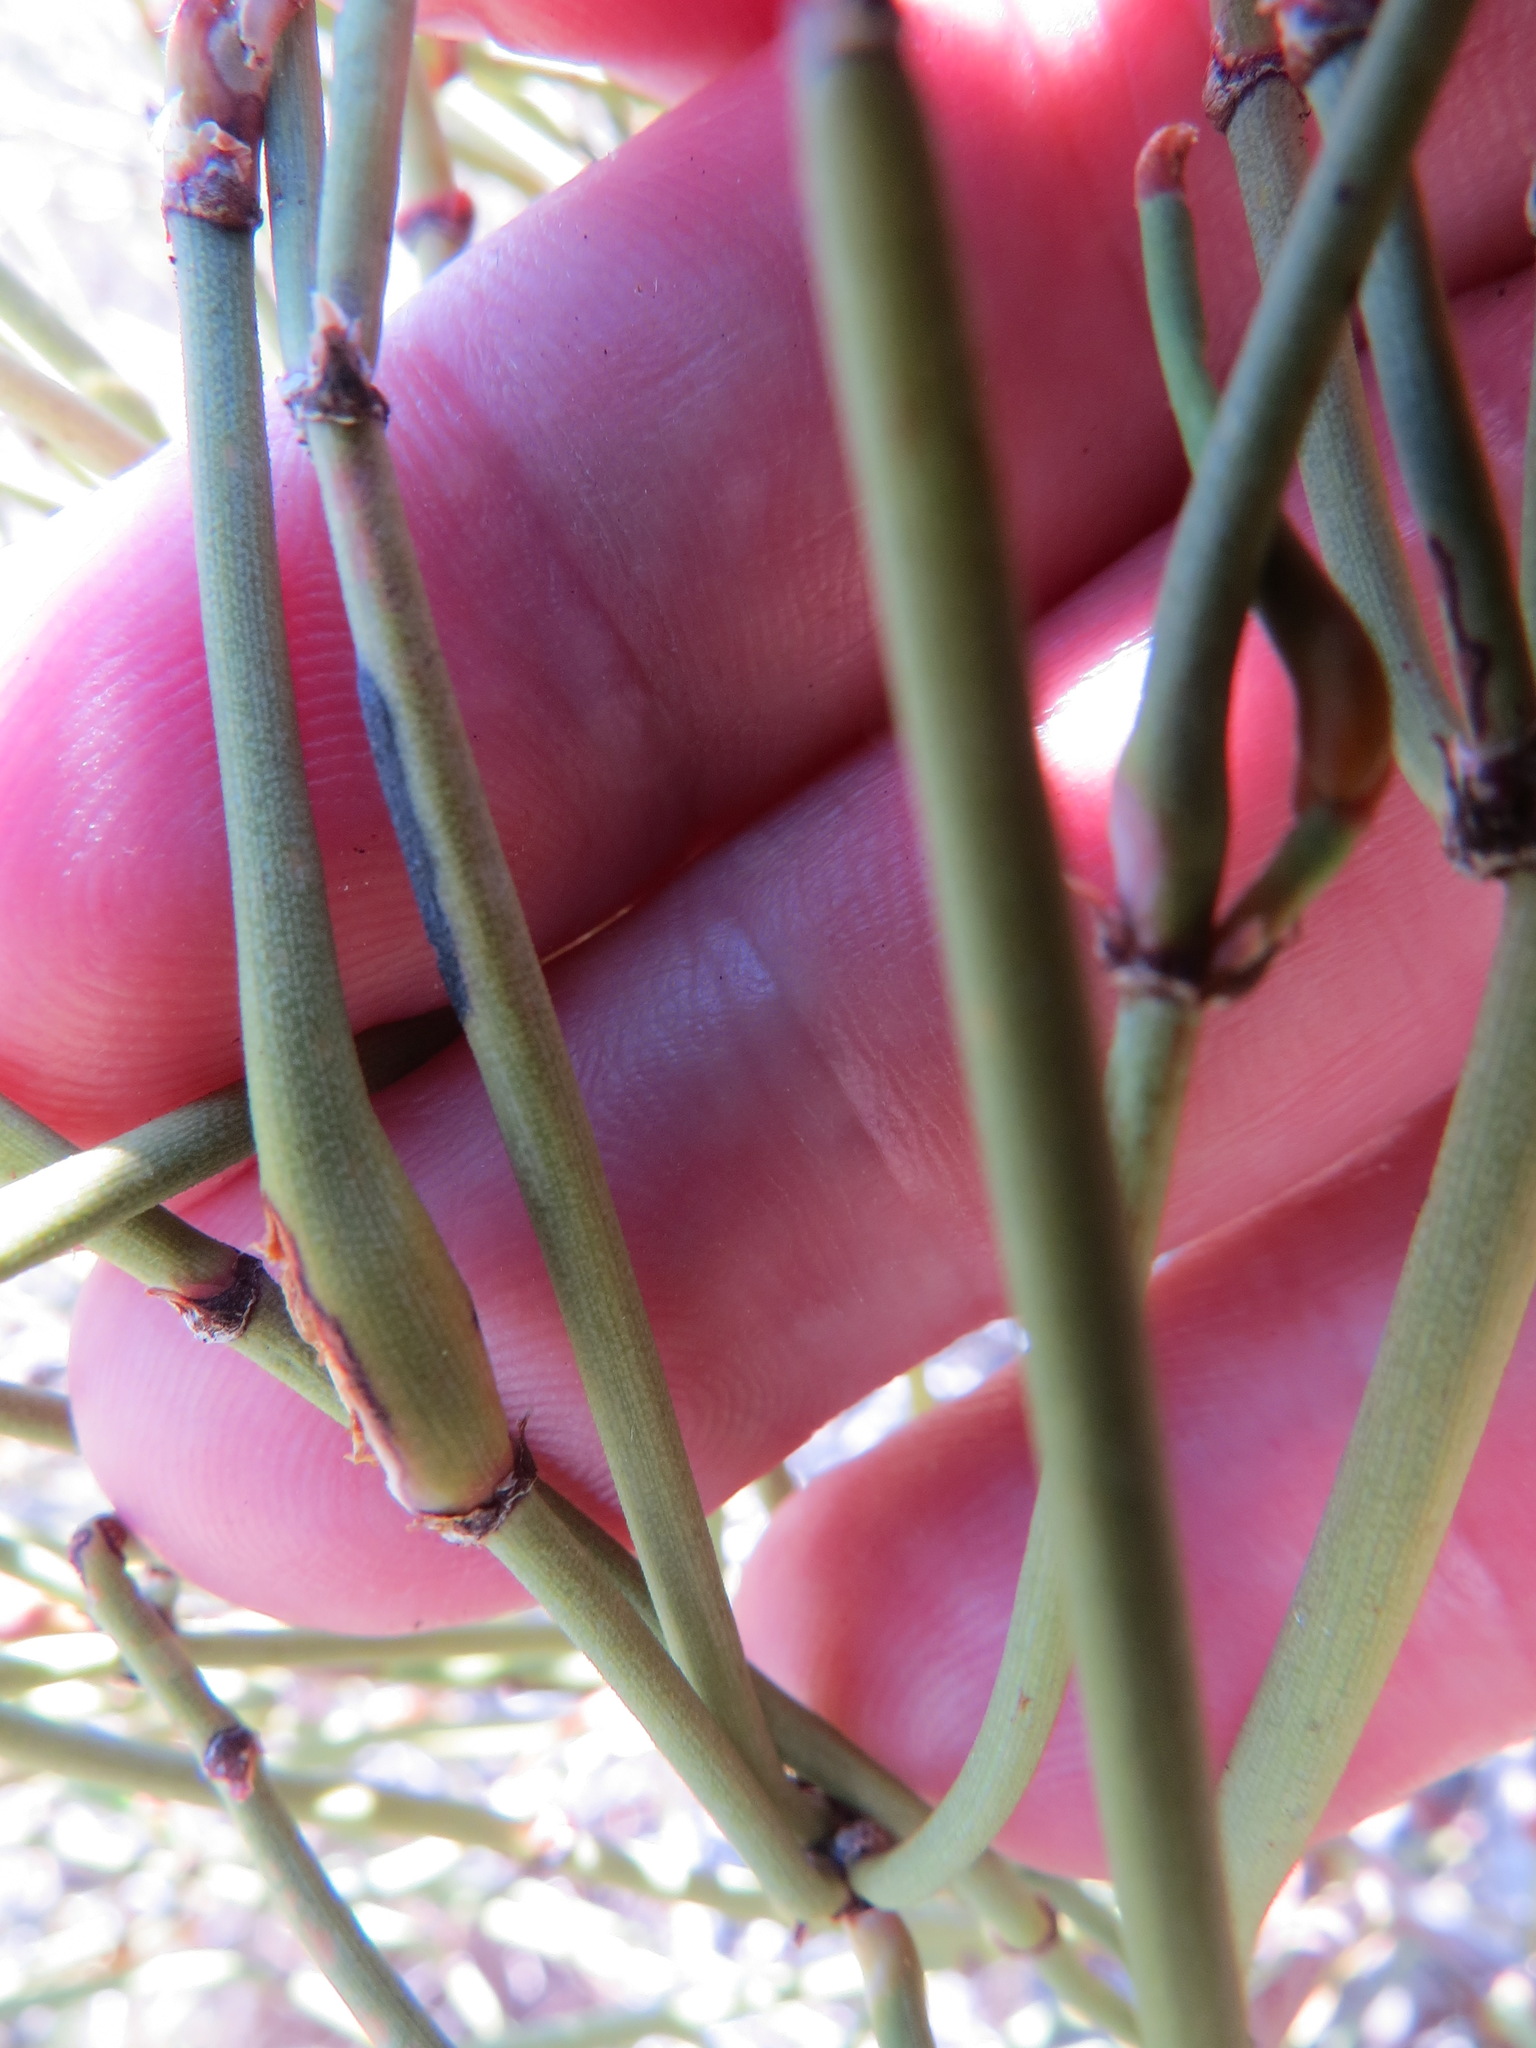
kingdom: Animalia
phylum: Arthropoda
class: Insecta
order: Diptera
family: Cecidomyiidae
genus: Lasioptera
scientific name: Lasioptera ephedrae
